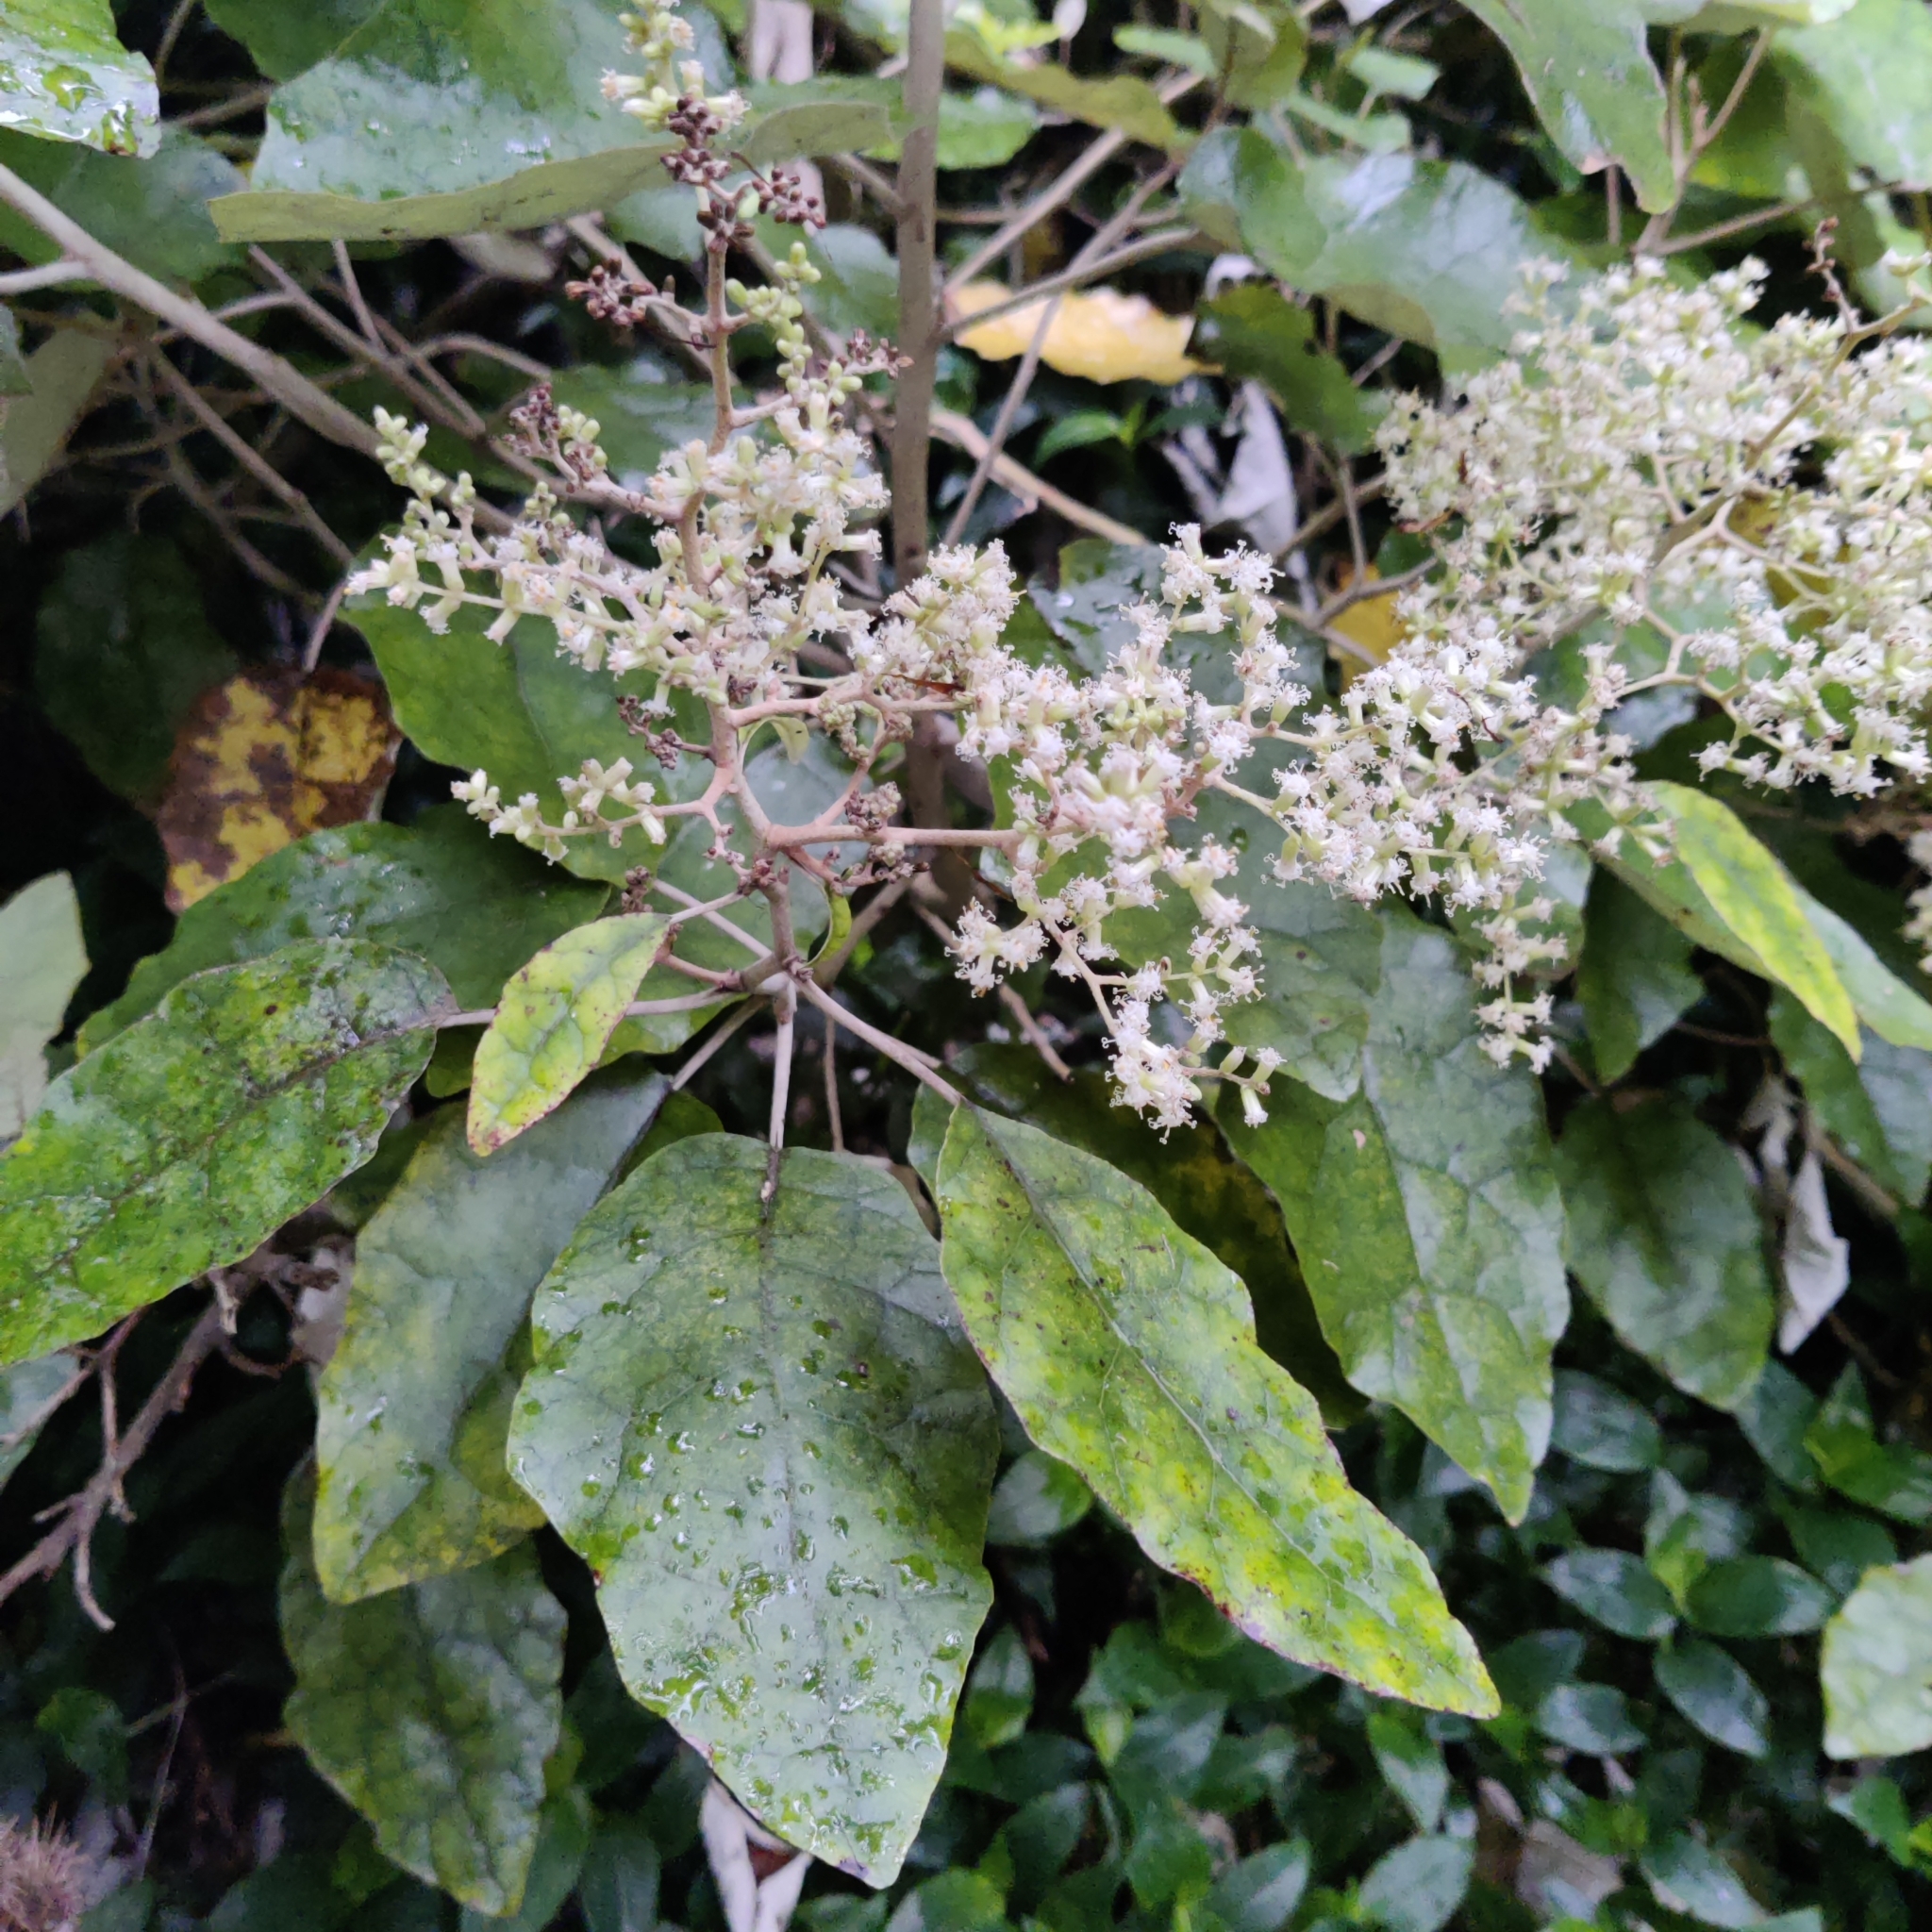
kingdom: Plantae
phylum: Tracheophyta
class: Magnoliopsida
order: Asterales
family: Asteraceae
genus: Brachyglottis
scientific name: Brachyglottis repanda
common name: Hedge ragwort
